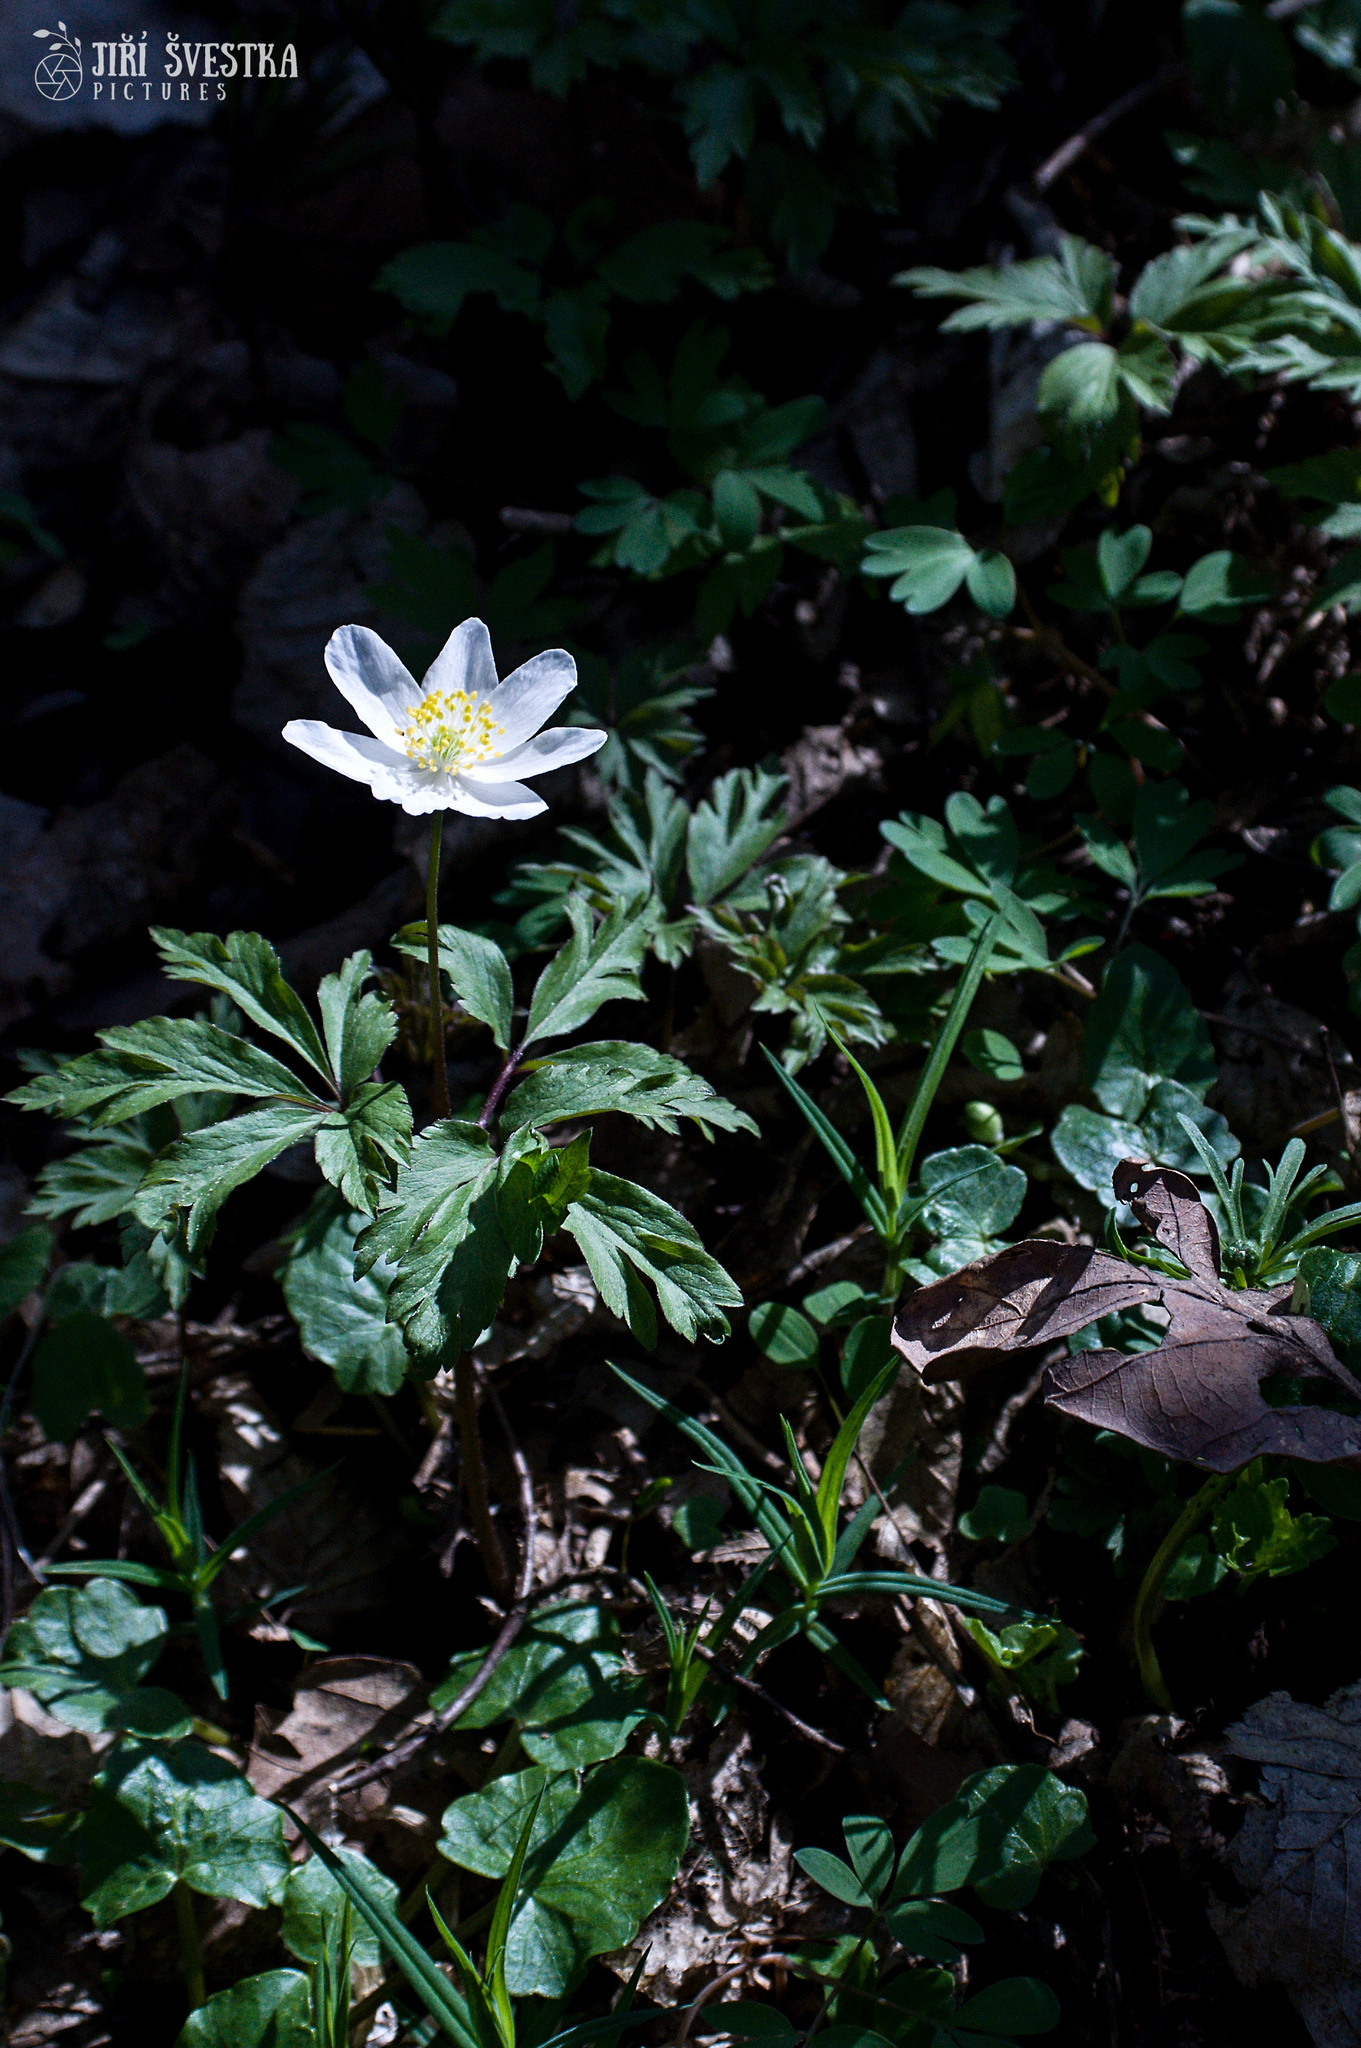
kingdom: Plantae
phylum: Tracheophyta
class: Magnoliopsida
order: Ranunculales
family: Ranunculaceae
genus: Anemone
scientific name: Anemone nemorosa
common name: Wood anemone
